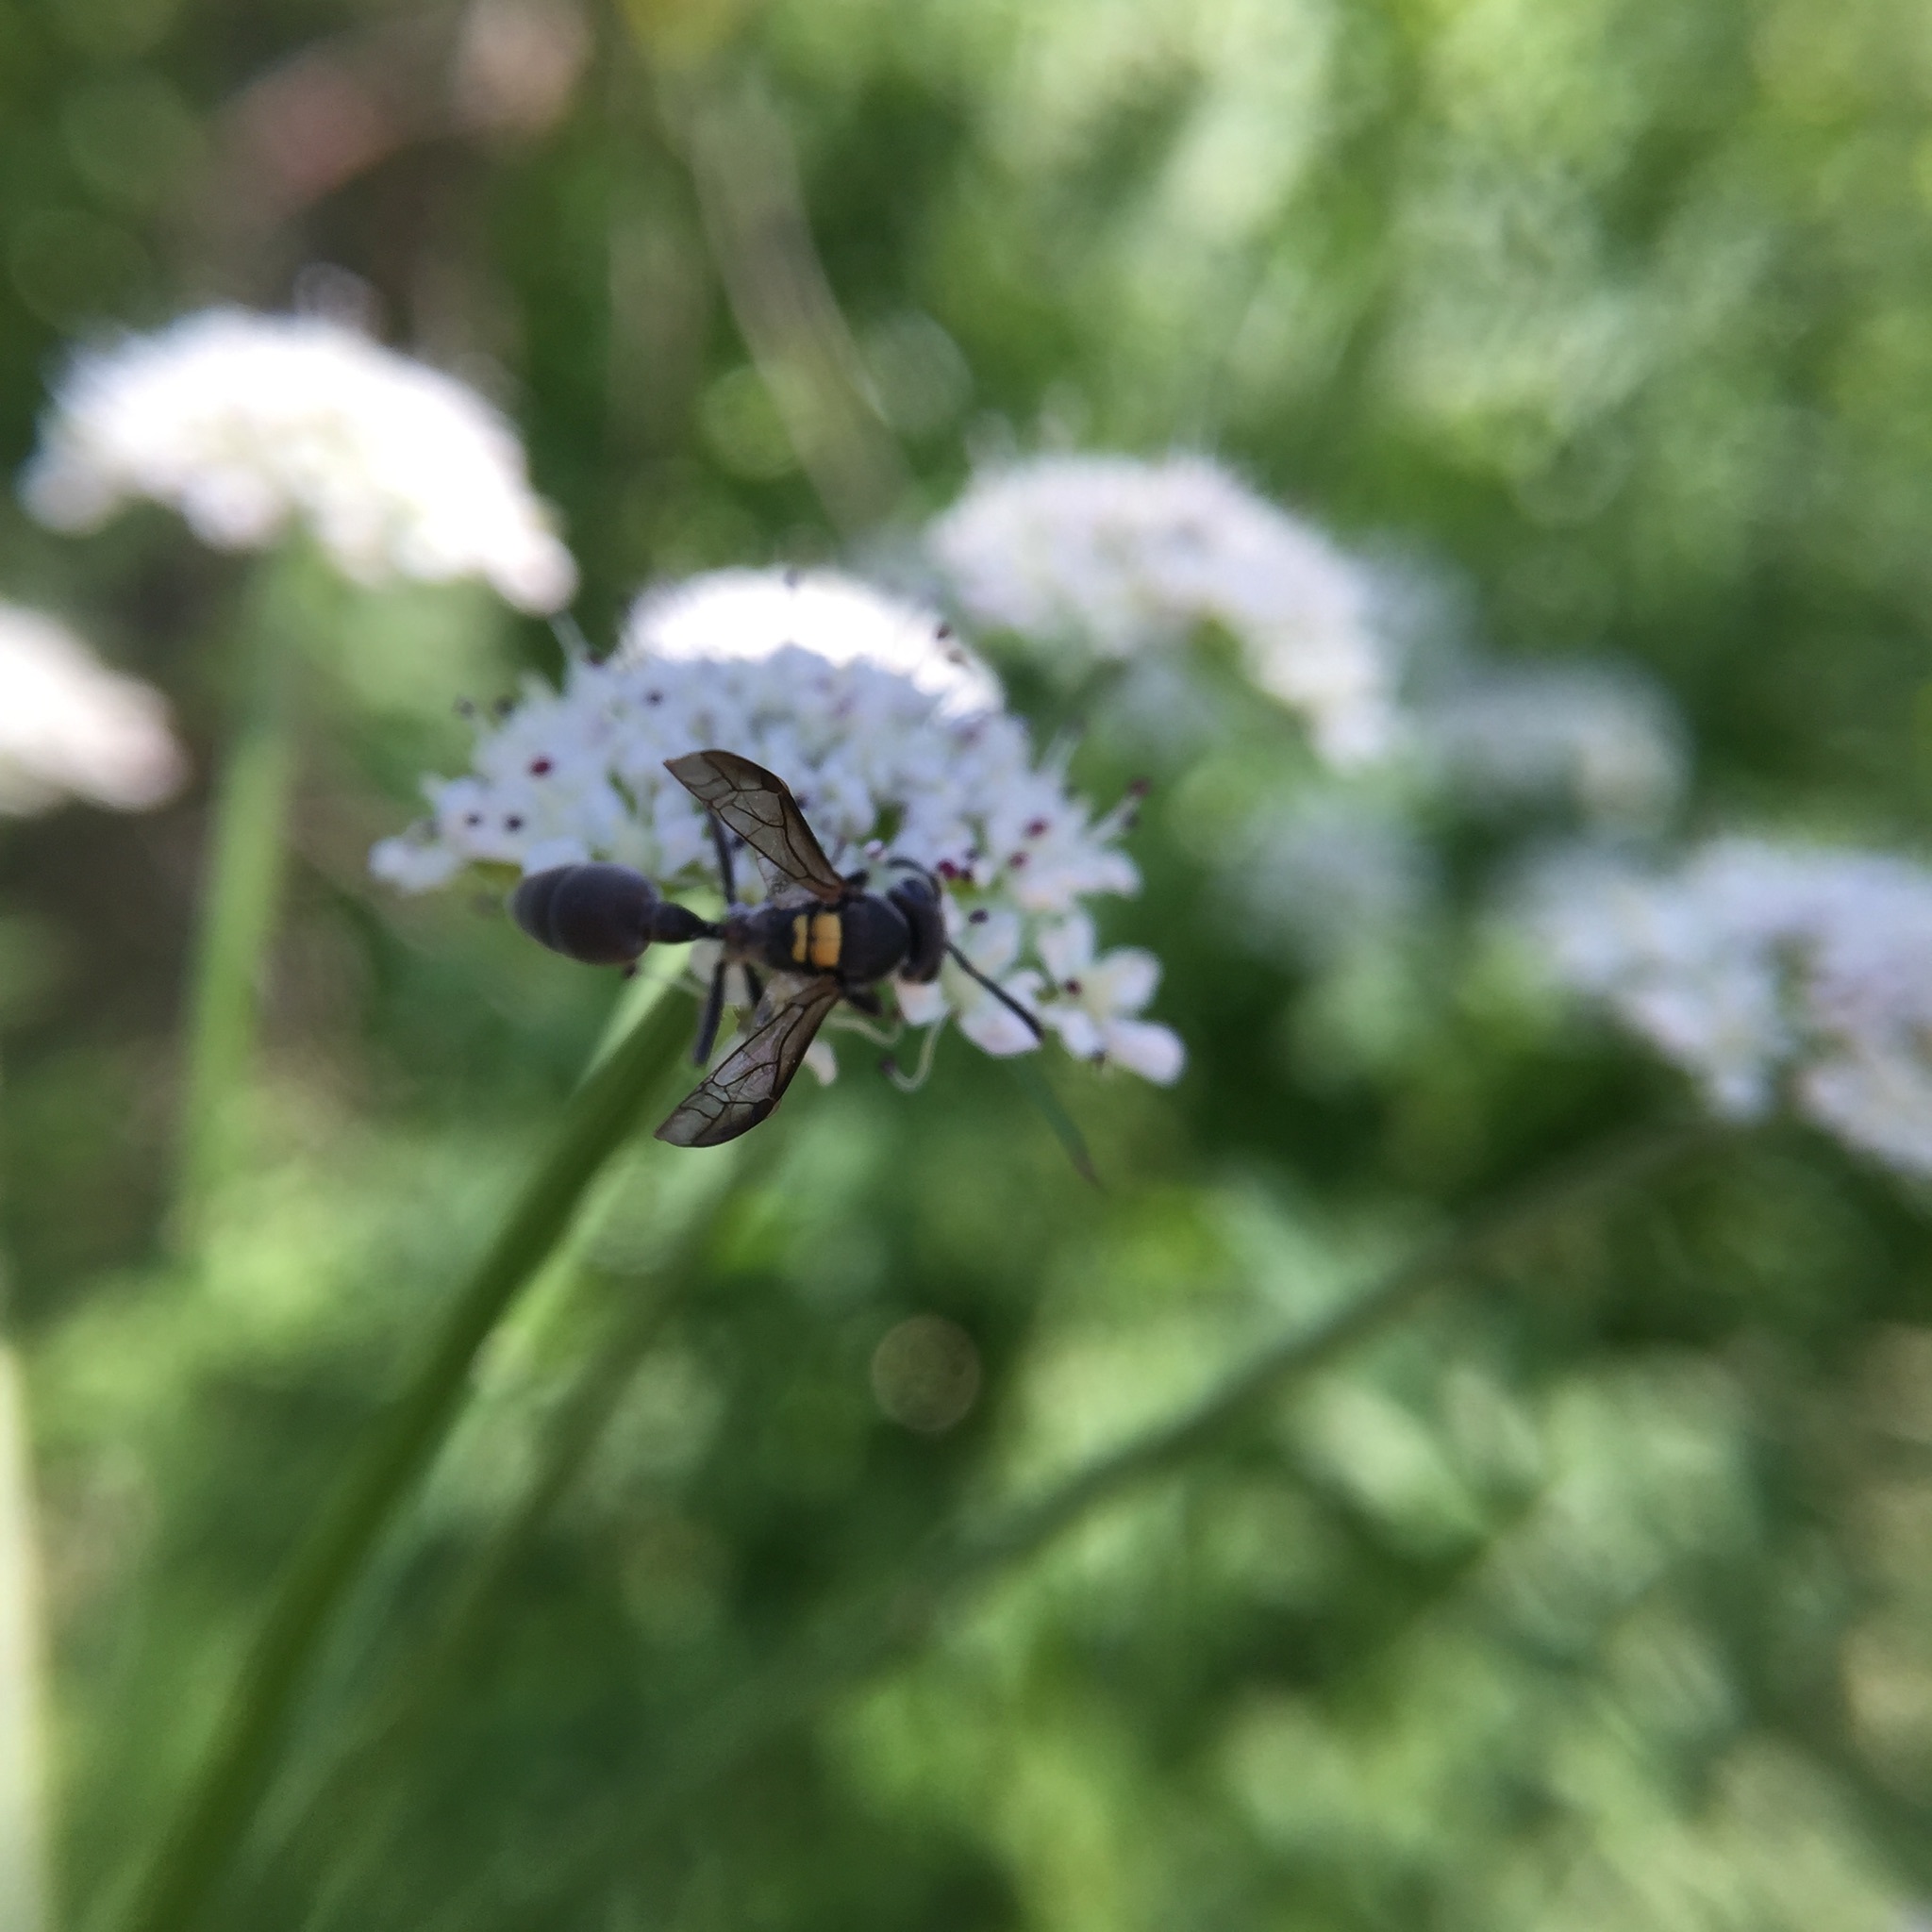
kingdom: Animalia
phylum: Arthropoda
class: Insecta
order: Hymenoptera
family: Eumenidae
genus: Polybia
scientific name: Polybia scutellaris
